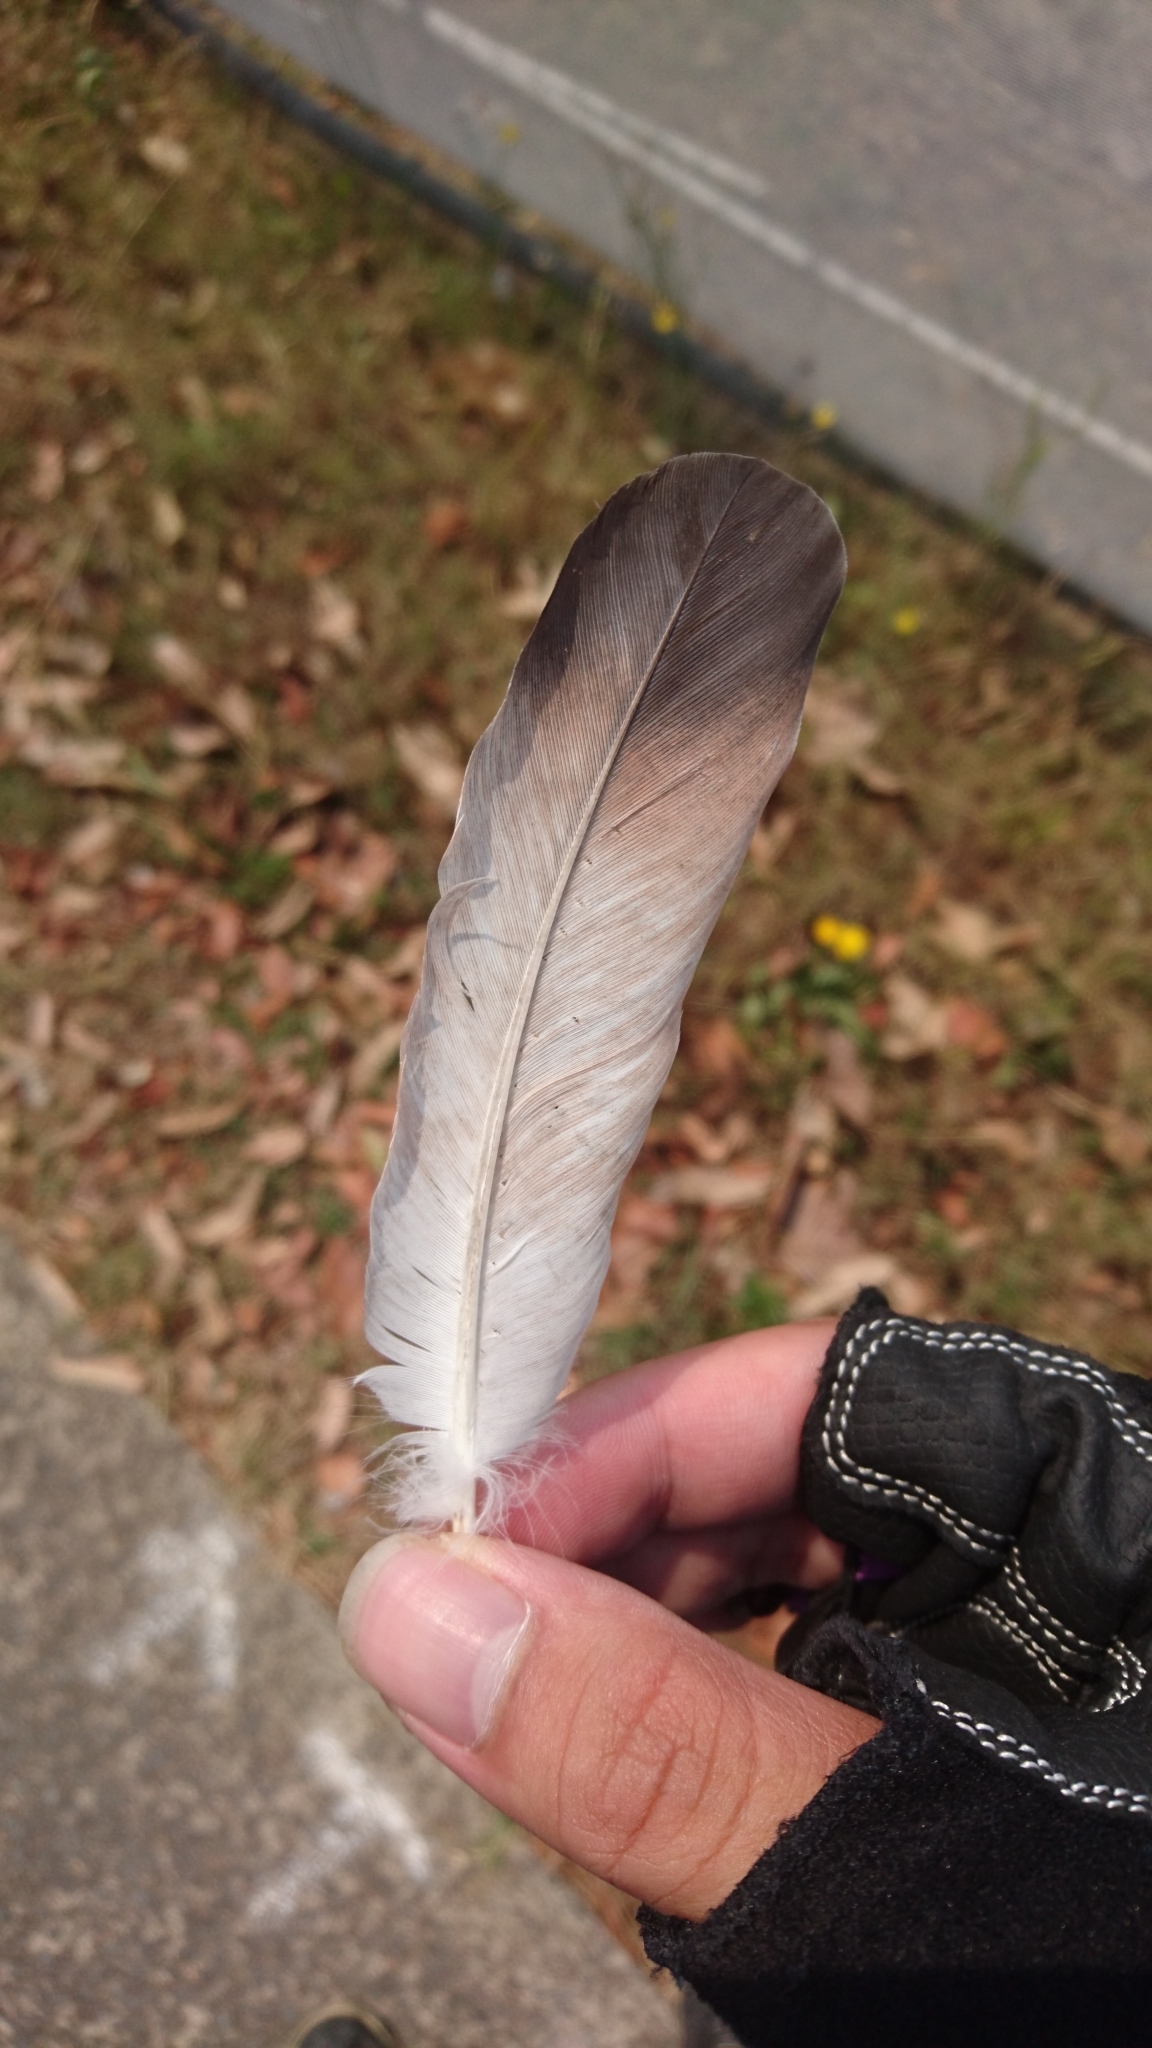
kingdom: Animalia
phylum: Chordata
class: Aves
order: Columbiformes
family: Columbidae
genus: Columba
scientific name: Columba livia
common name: Rock pigeon
